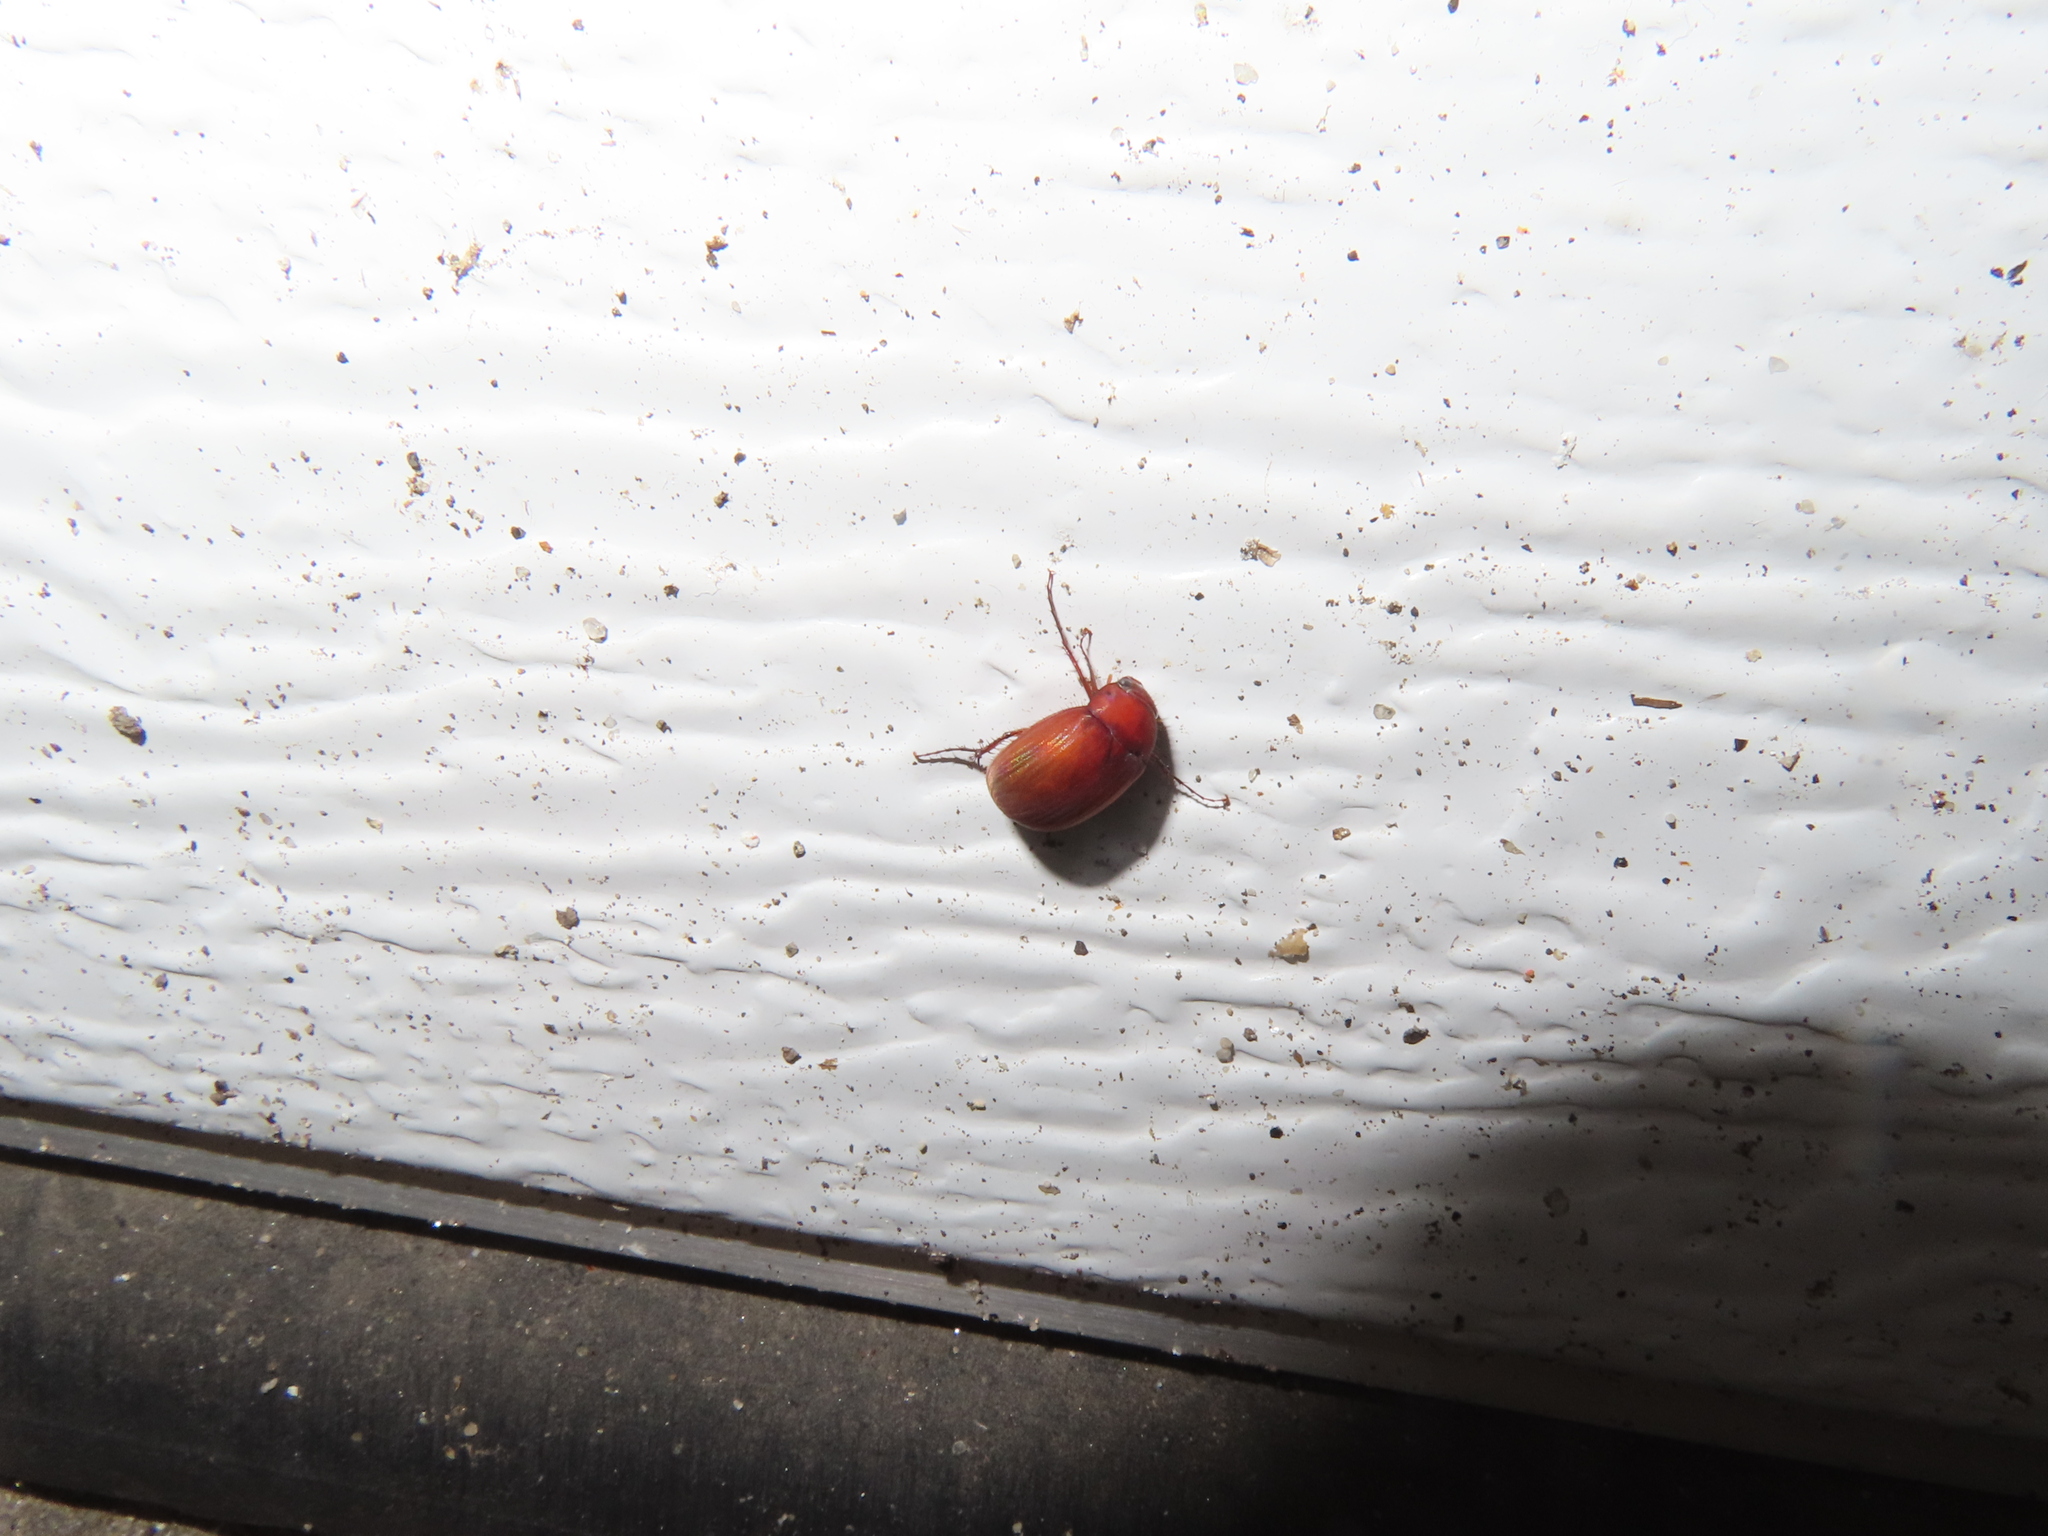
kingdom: Animalia
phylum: Arthropoda
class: Insecta
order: Coleoptera
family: Scarabaeidae
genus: Maladera
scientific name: Maladera formosae
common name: Asiatic garden beetle
